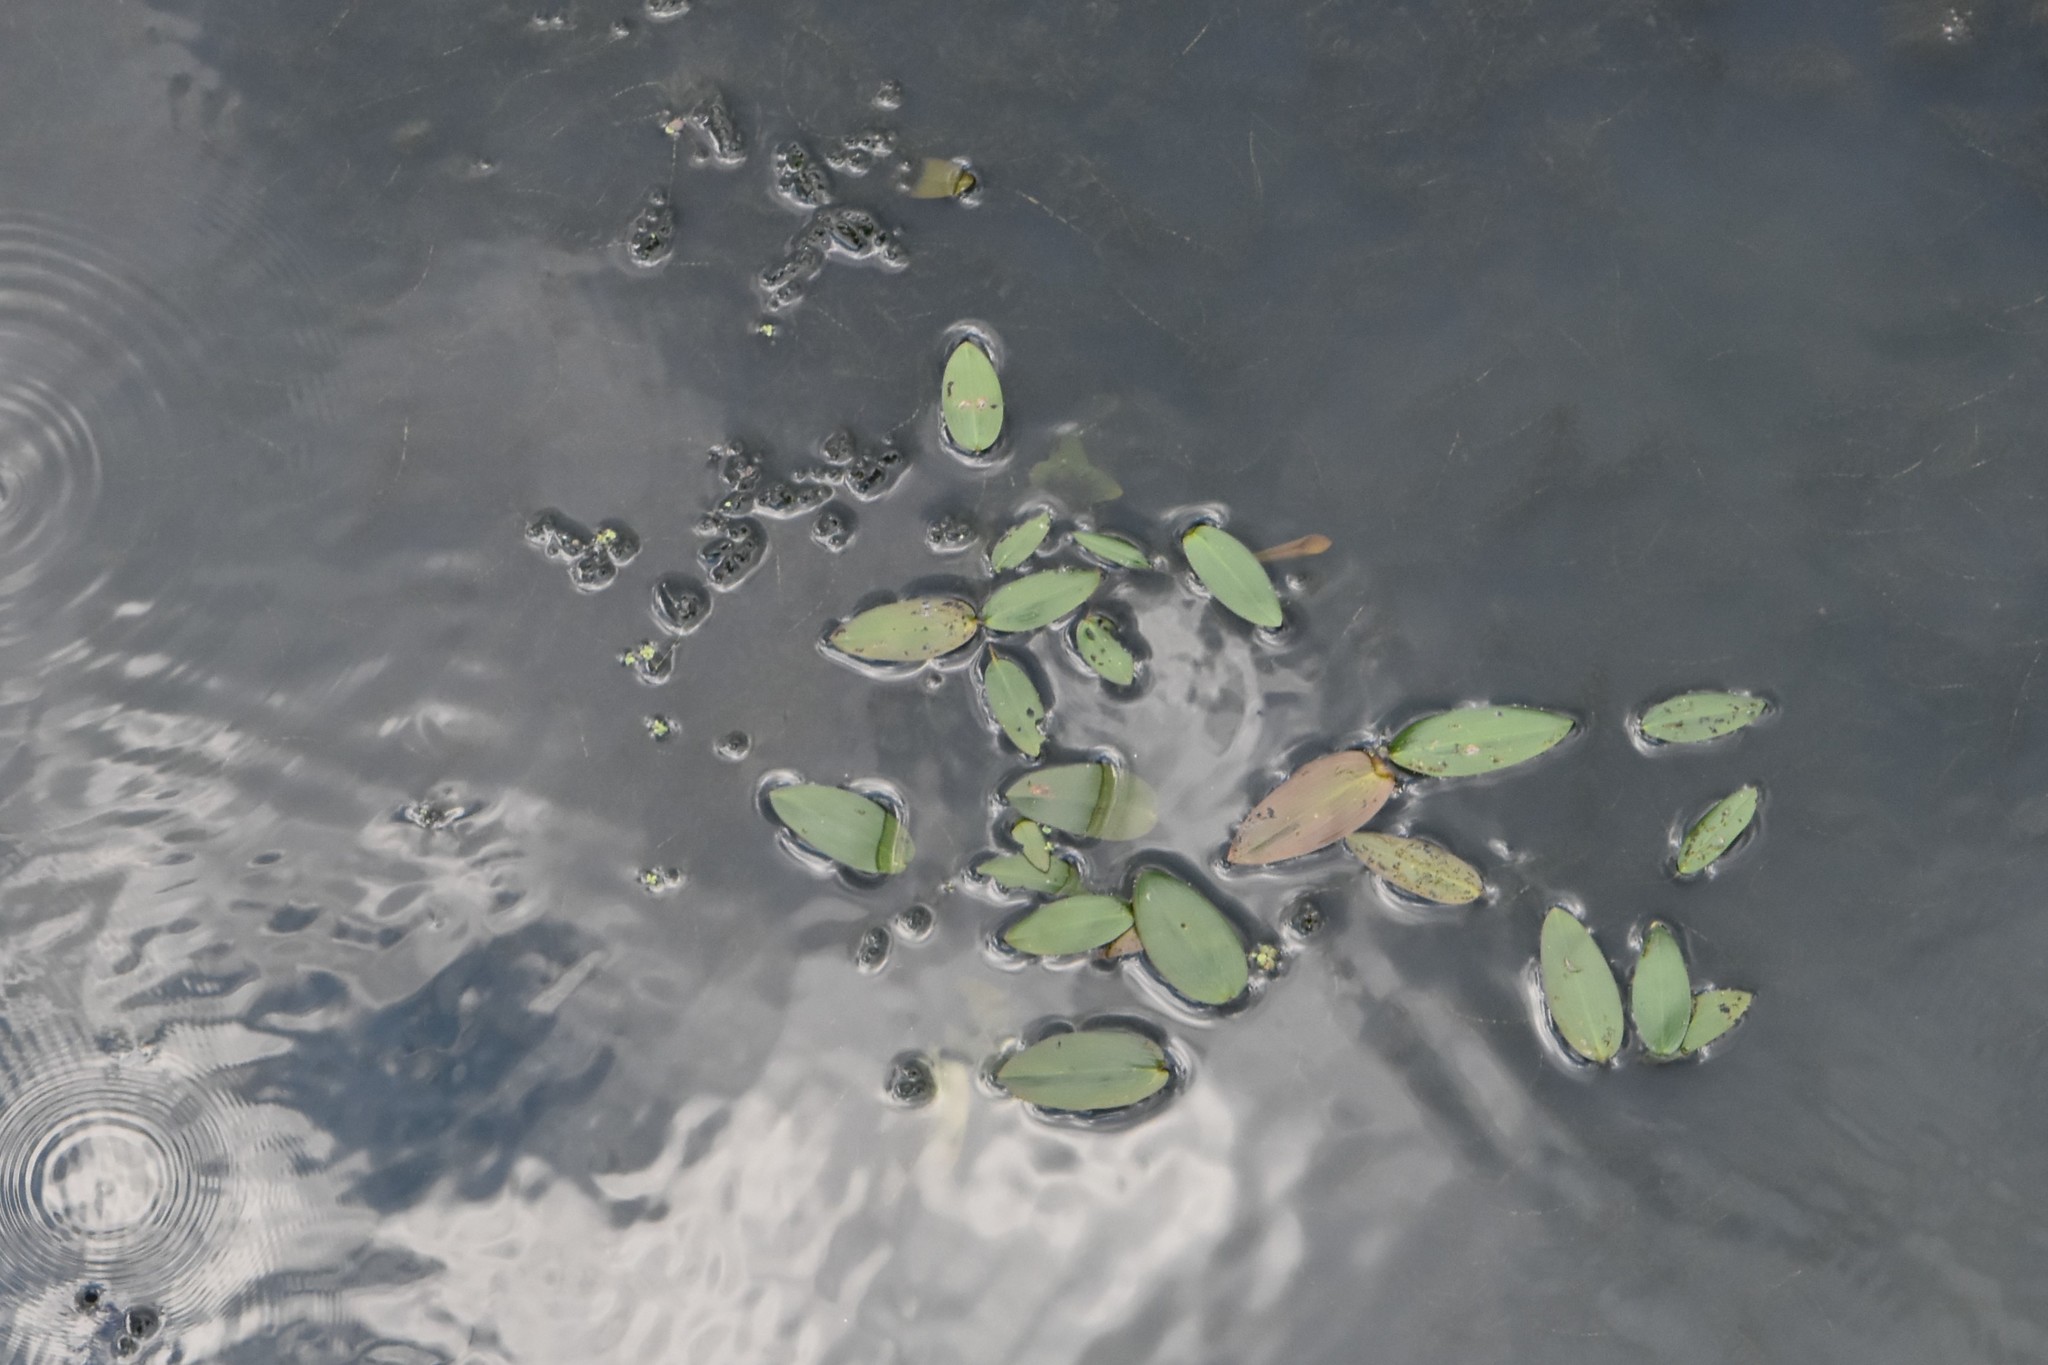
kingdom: Plantae
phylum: Tracheophyta
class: Liliopsida
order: Alismatales
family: Potamogetonaceae
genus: Potamogeton
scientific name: Potamogeton natans
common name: Broad-leaved pondweed
